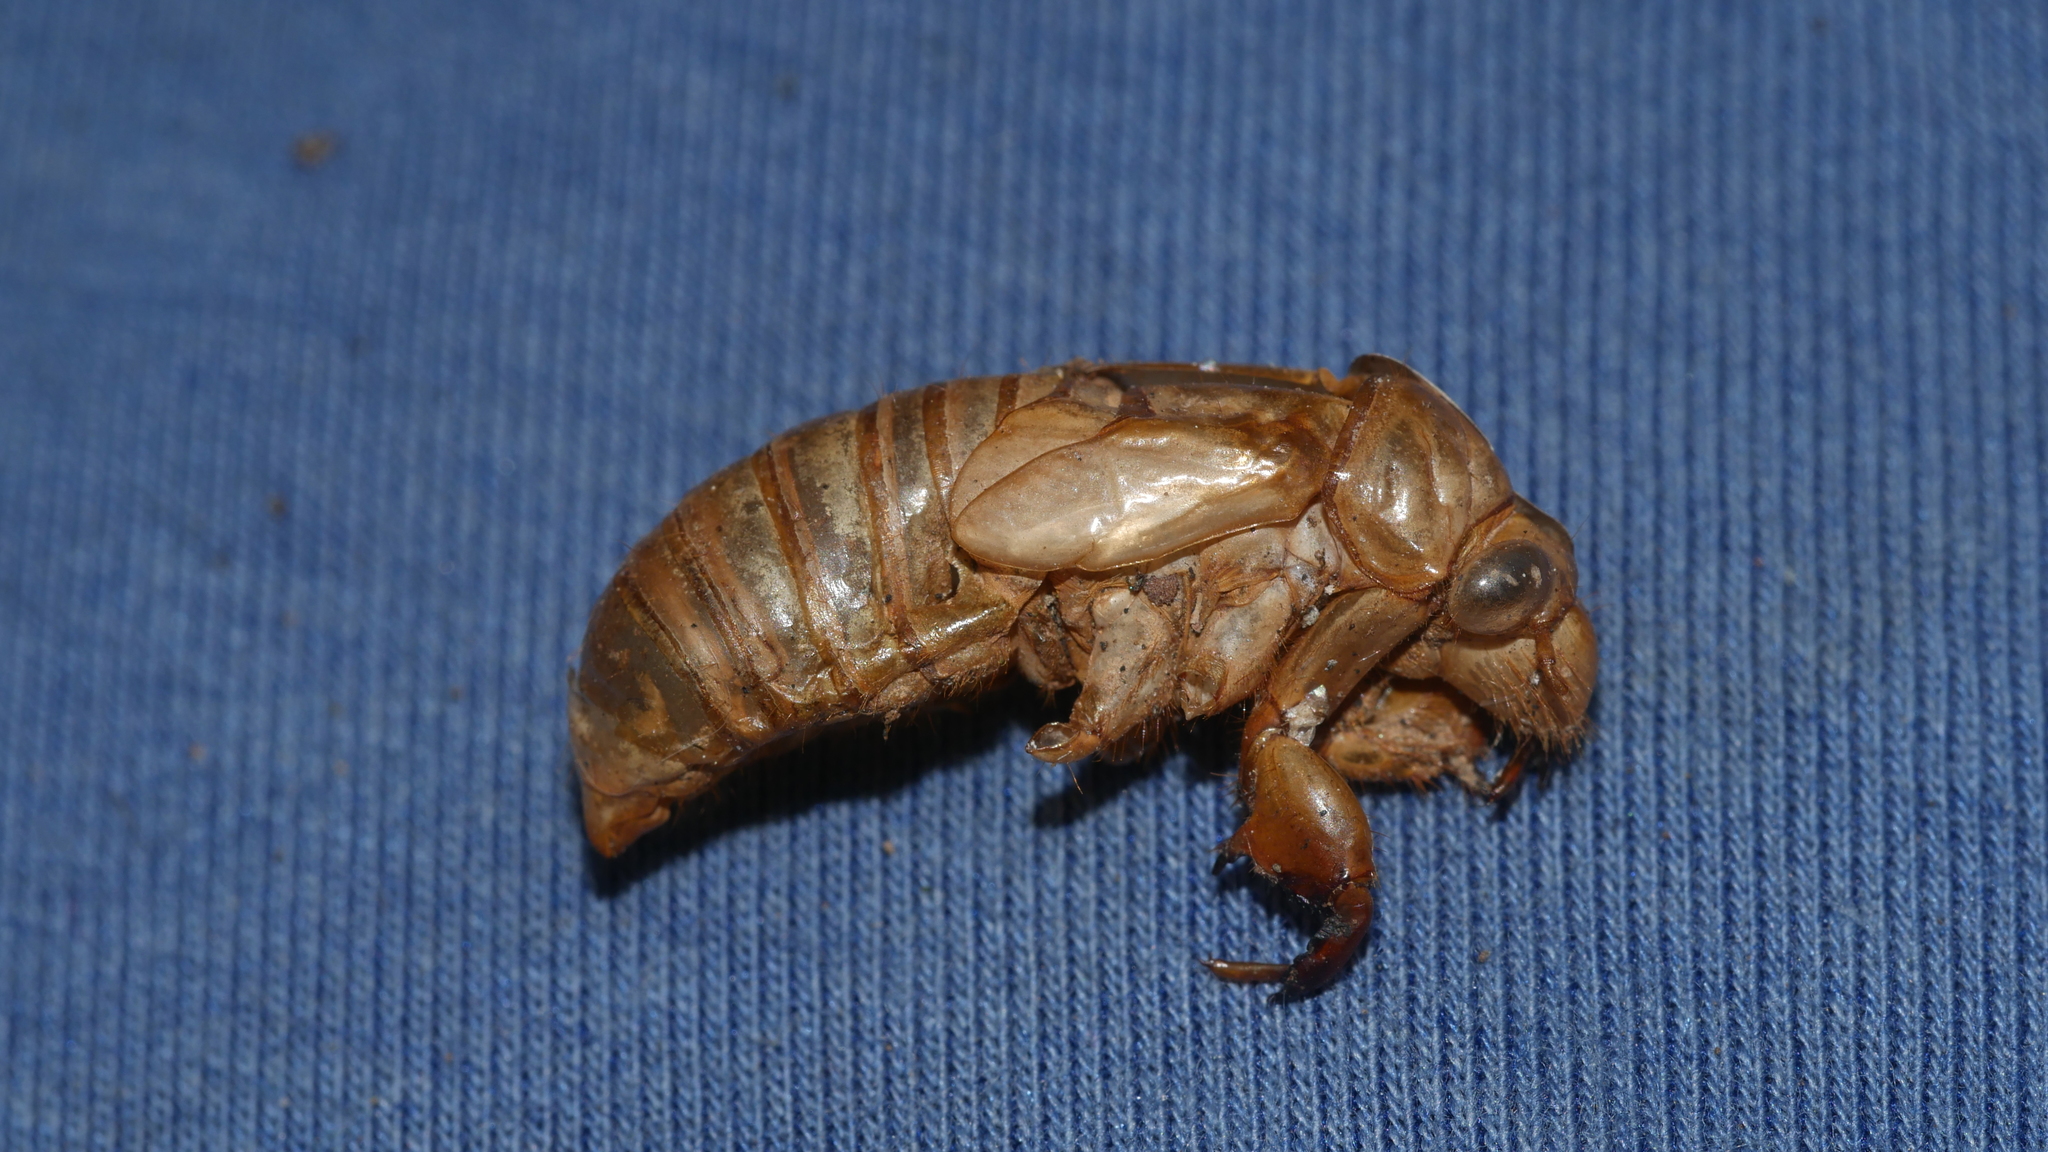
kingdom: Animalia
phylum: Arthropoda
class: Insecta
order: Hemiptera
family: Cicadidae
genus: Magicicada
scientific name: Magicicada
